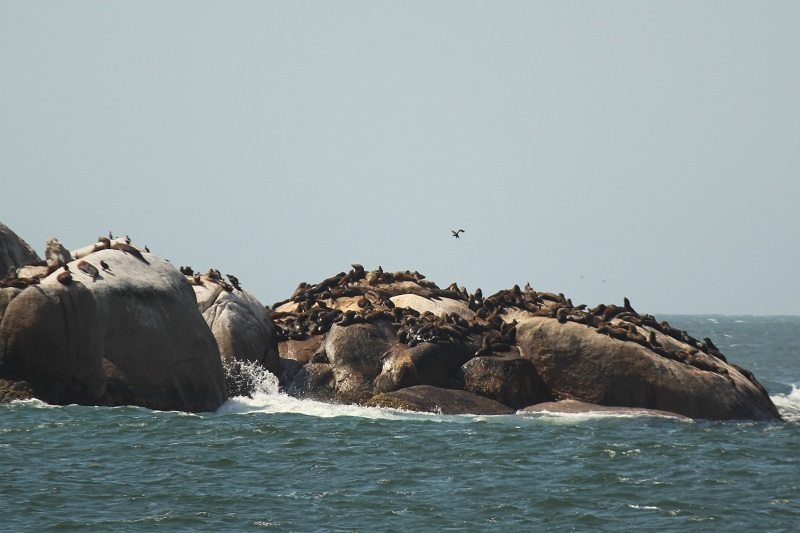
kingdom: Animalia
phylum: Chordata
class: Mammalia
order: Carnivora
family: Otariidae
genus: Arctocephalus
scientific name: Arctocephalus pusillus
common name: Brown fur seal
